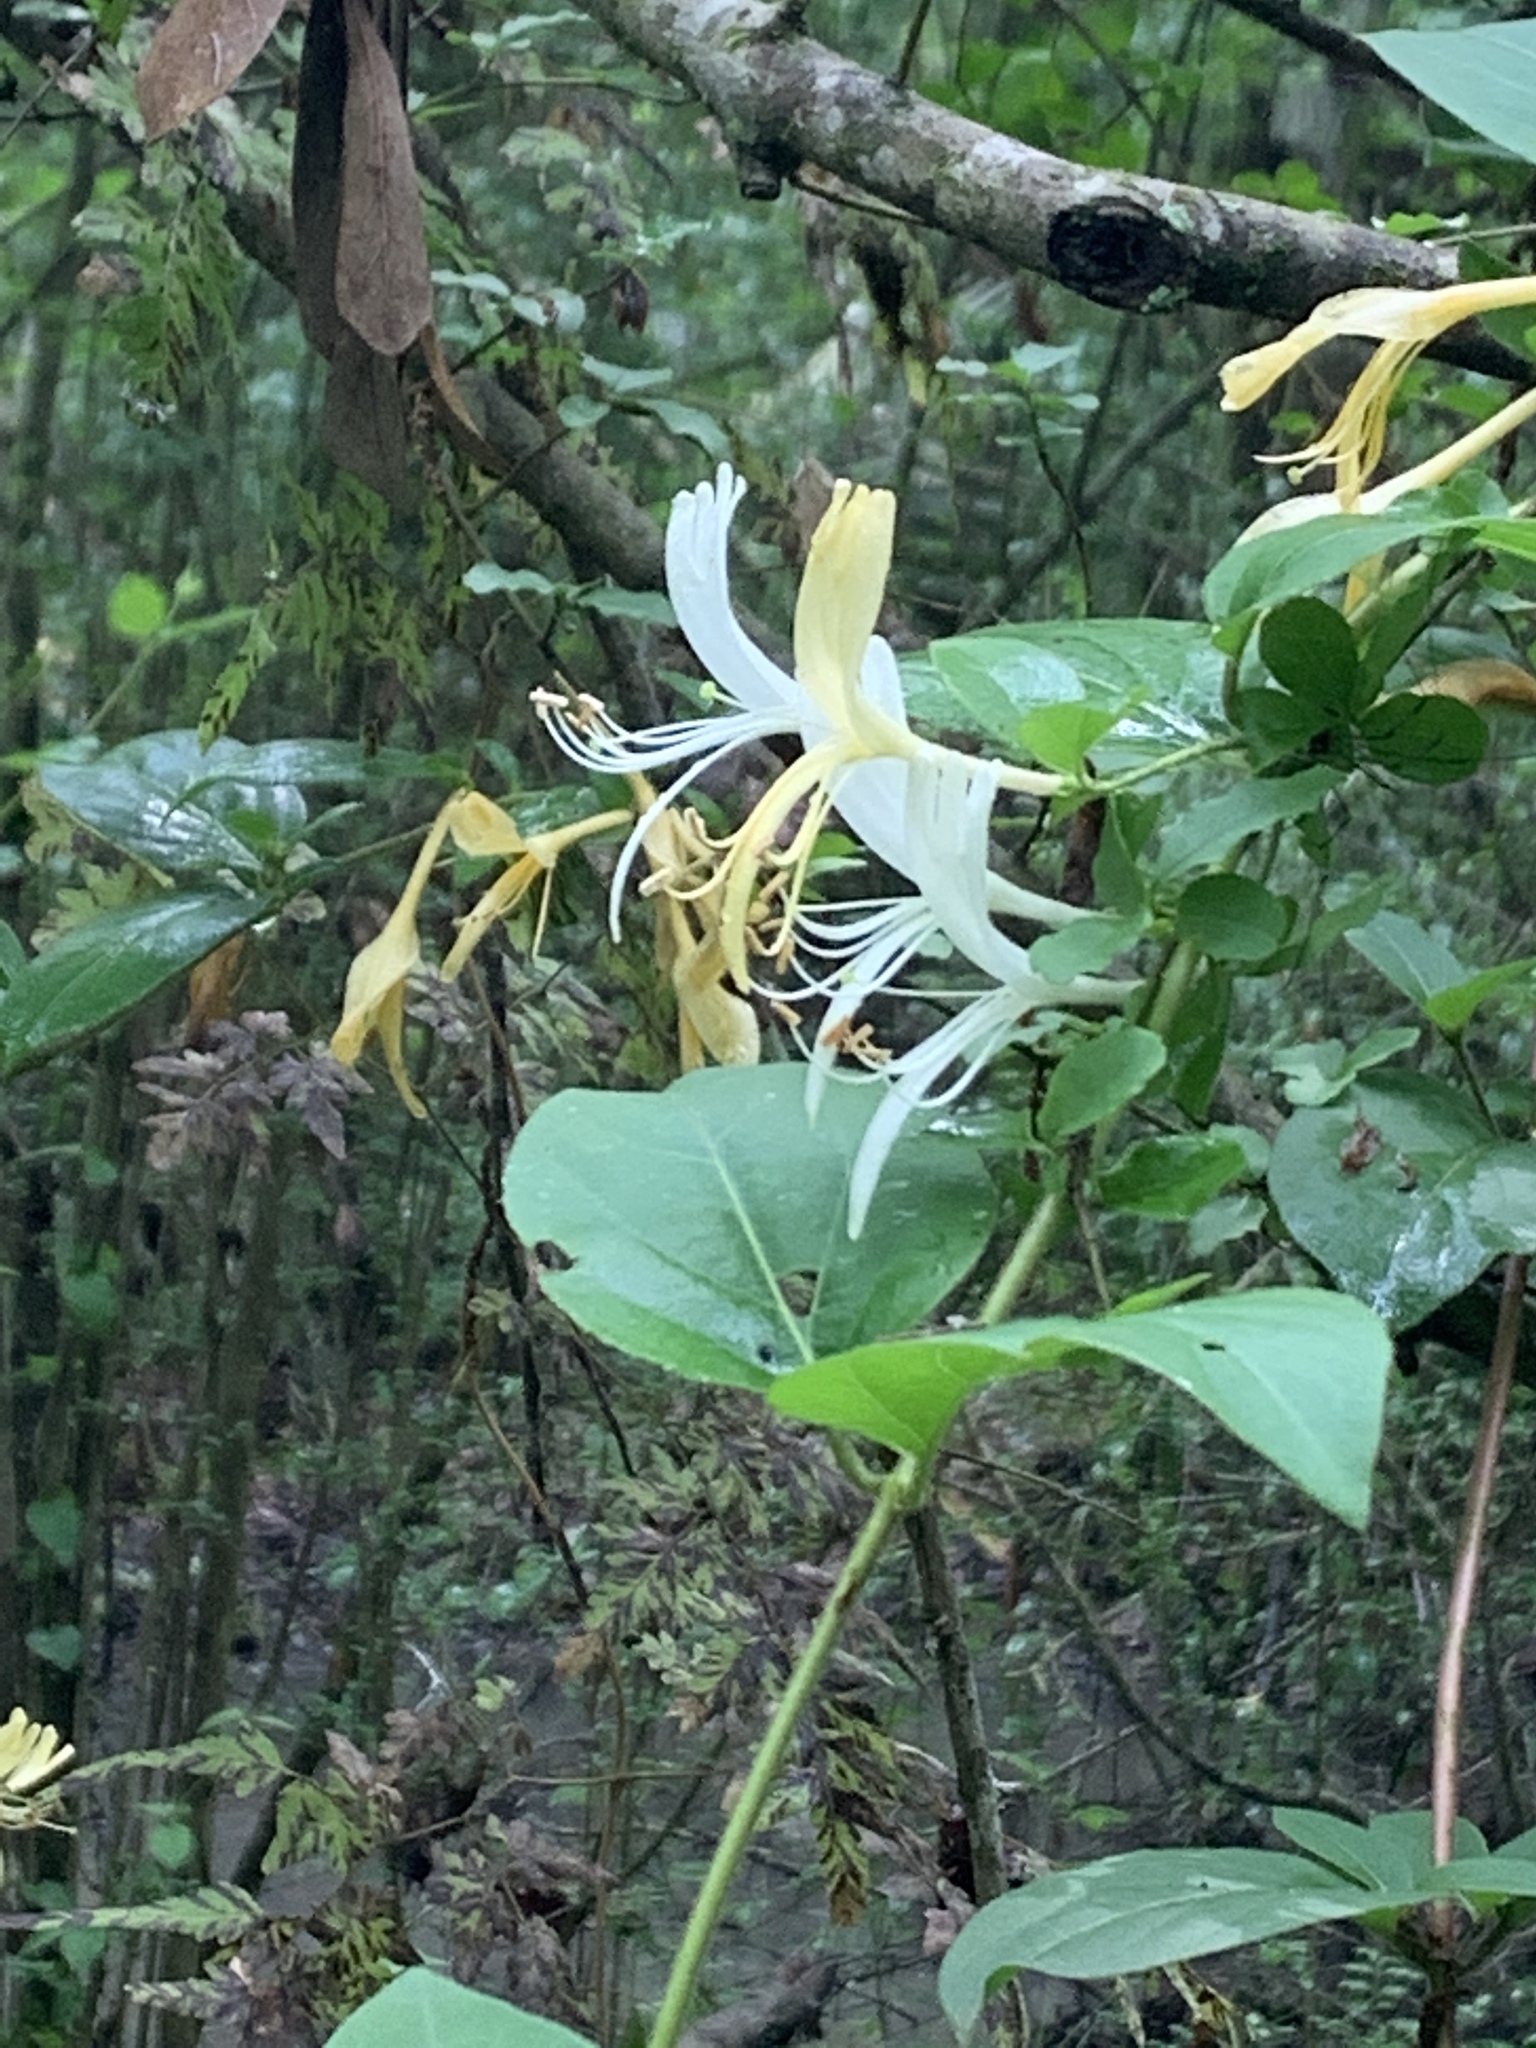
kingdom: Plantae
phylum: Tracheophyta
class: Magnoliopsida
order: Dipsacales
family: Caprifoliaceae
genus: Lonicera
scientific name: Lonicera japonica
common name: Japanese honeysuckle
